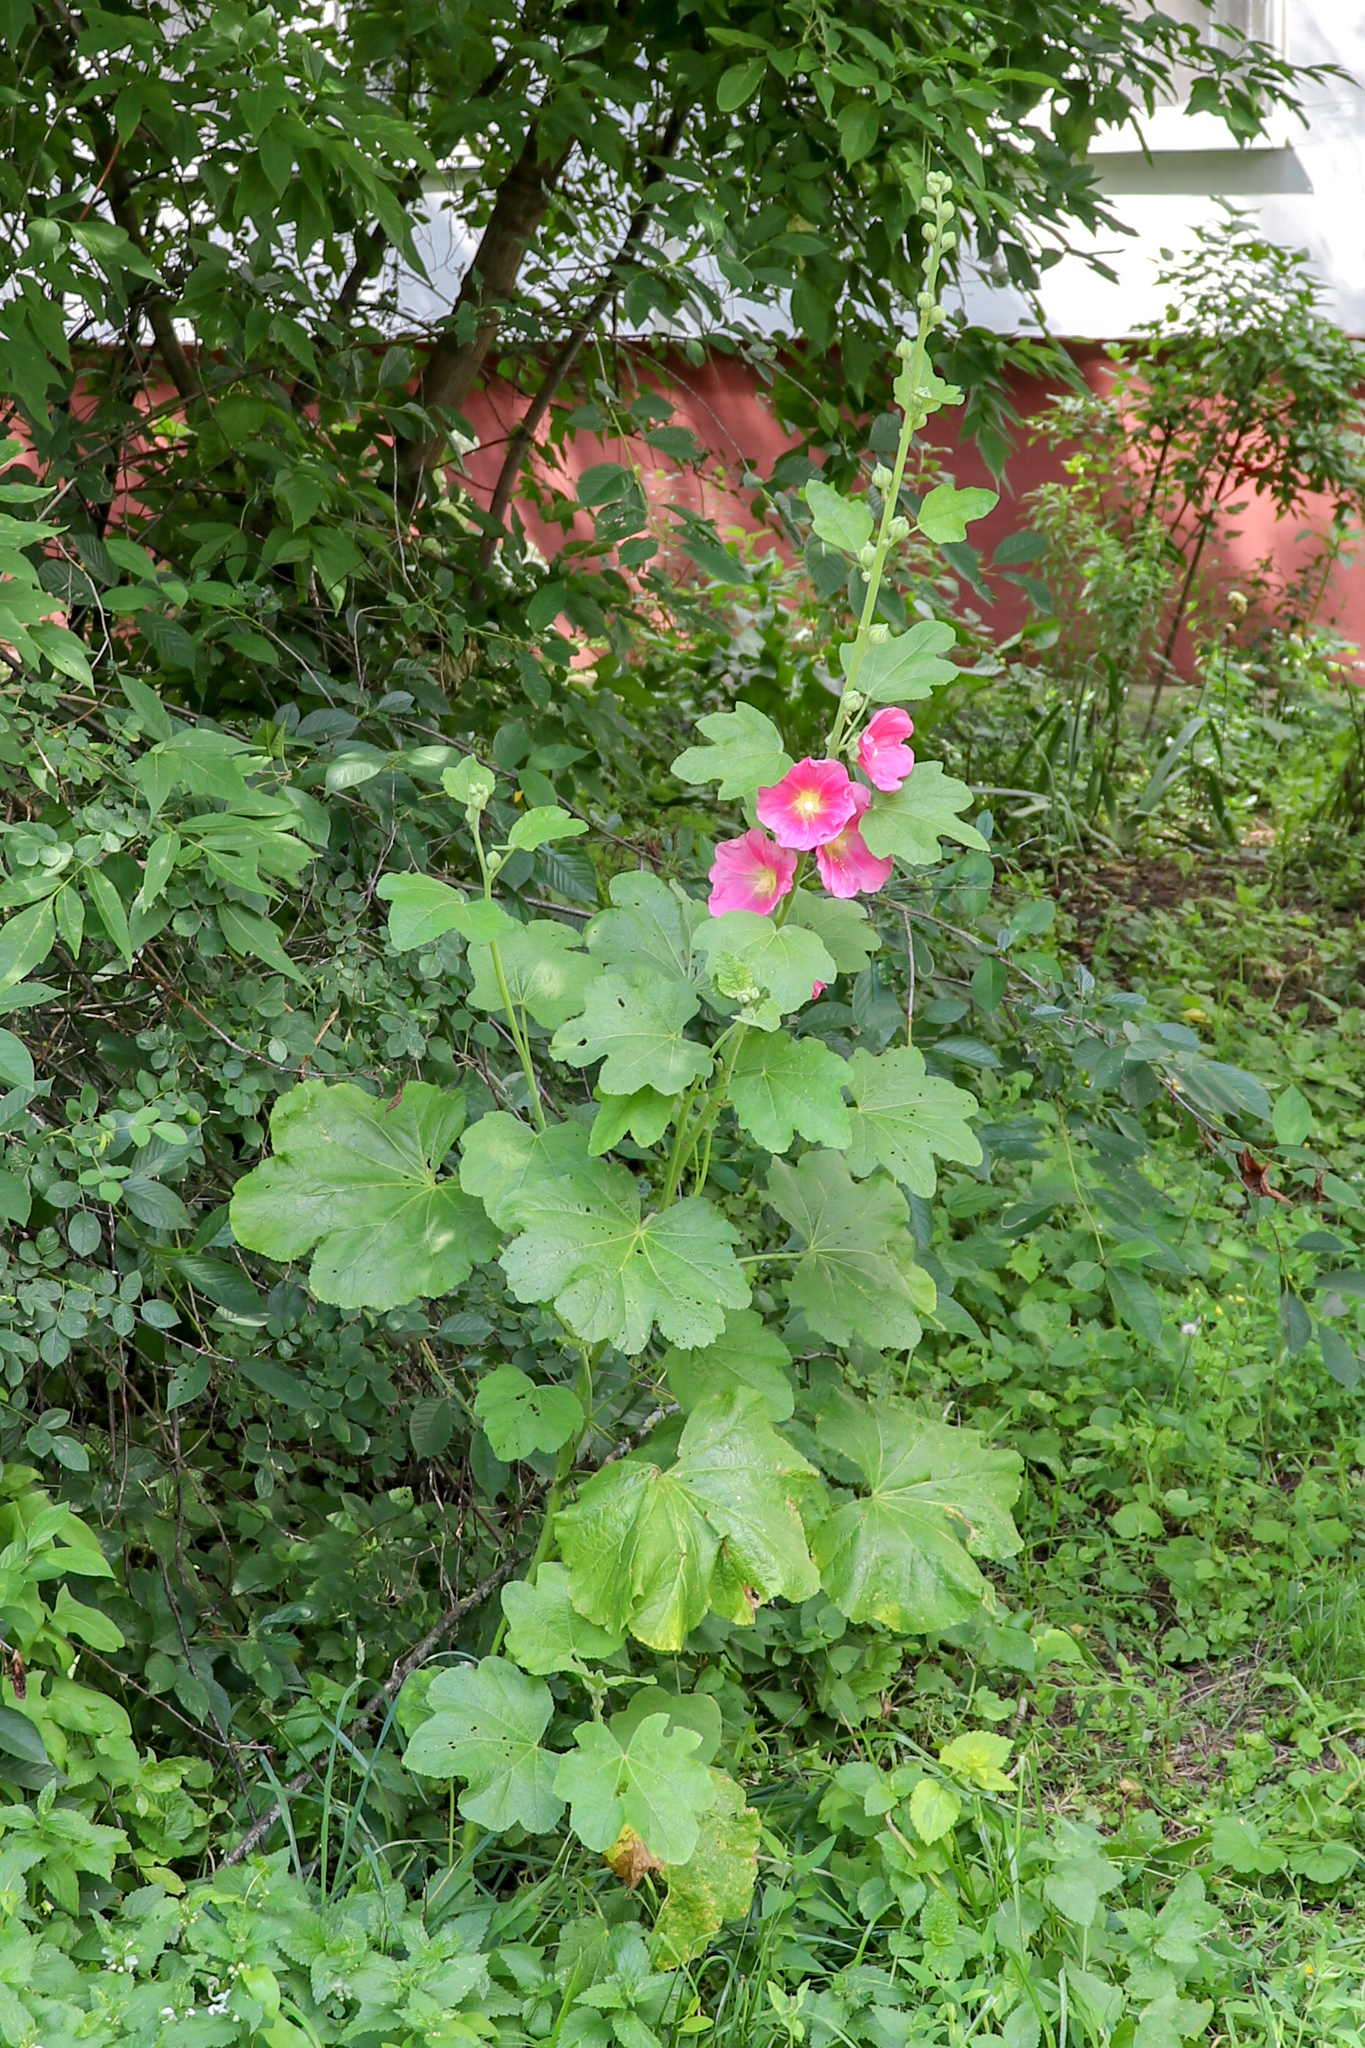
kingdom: Plantae
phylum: Tracheophyta
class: Magnoliopsida
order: Malvales
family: Malvaceae
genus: Alcea
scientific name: Alcea rosea
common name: Hollyhock
